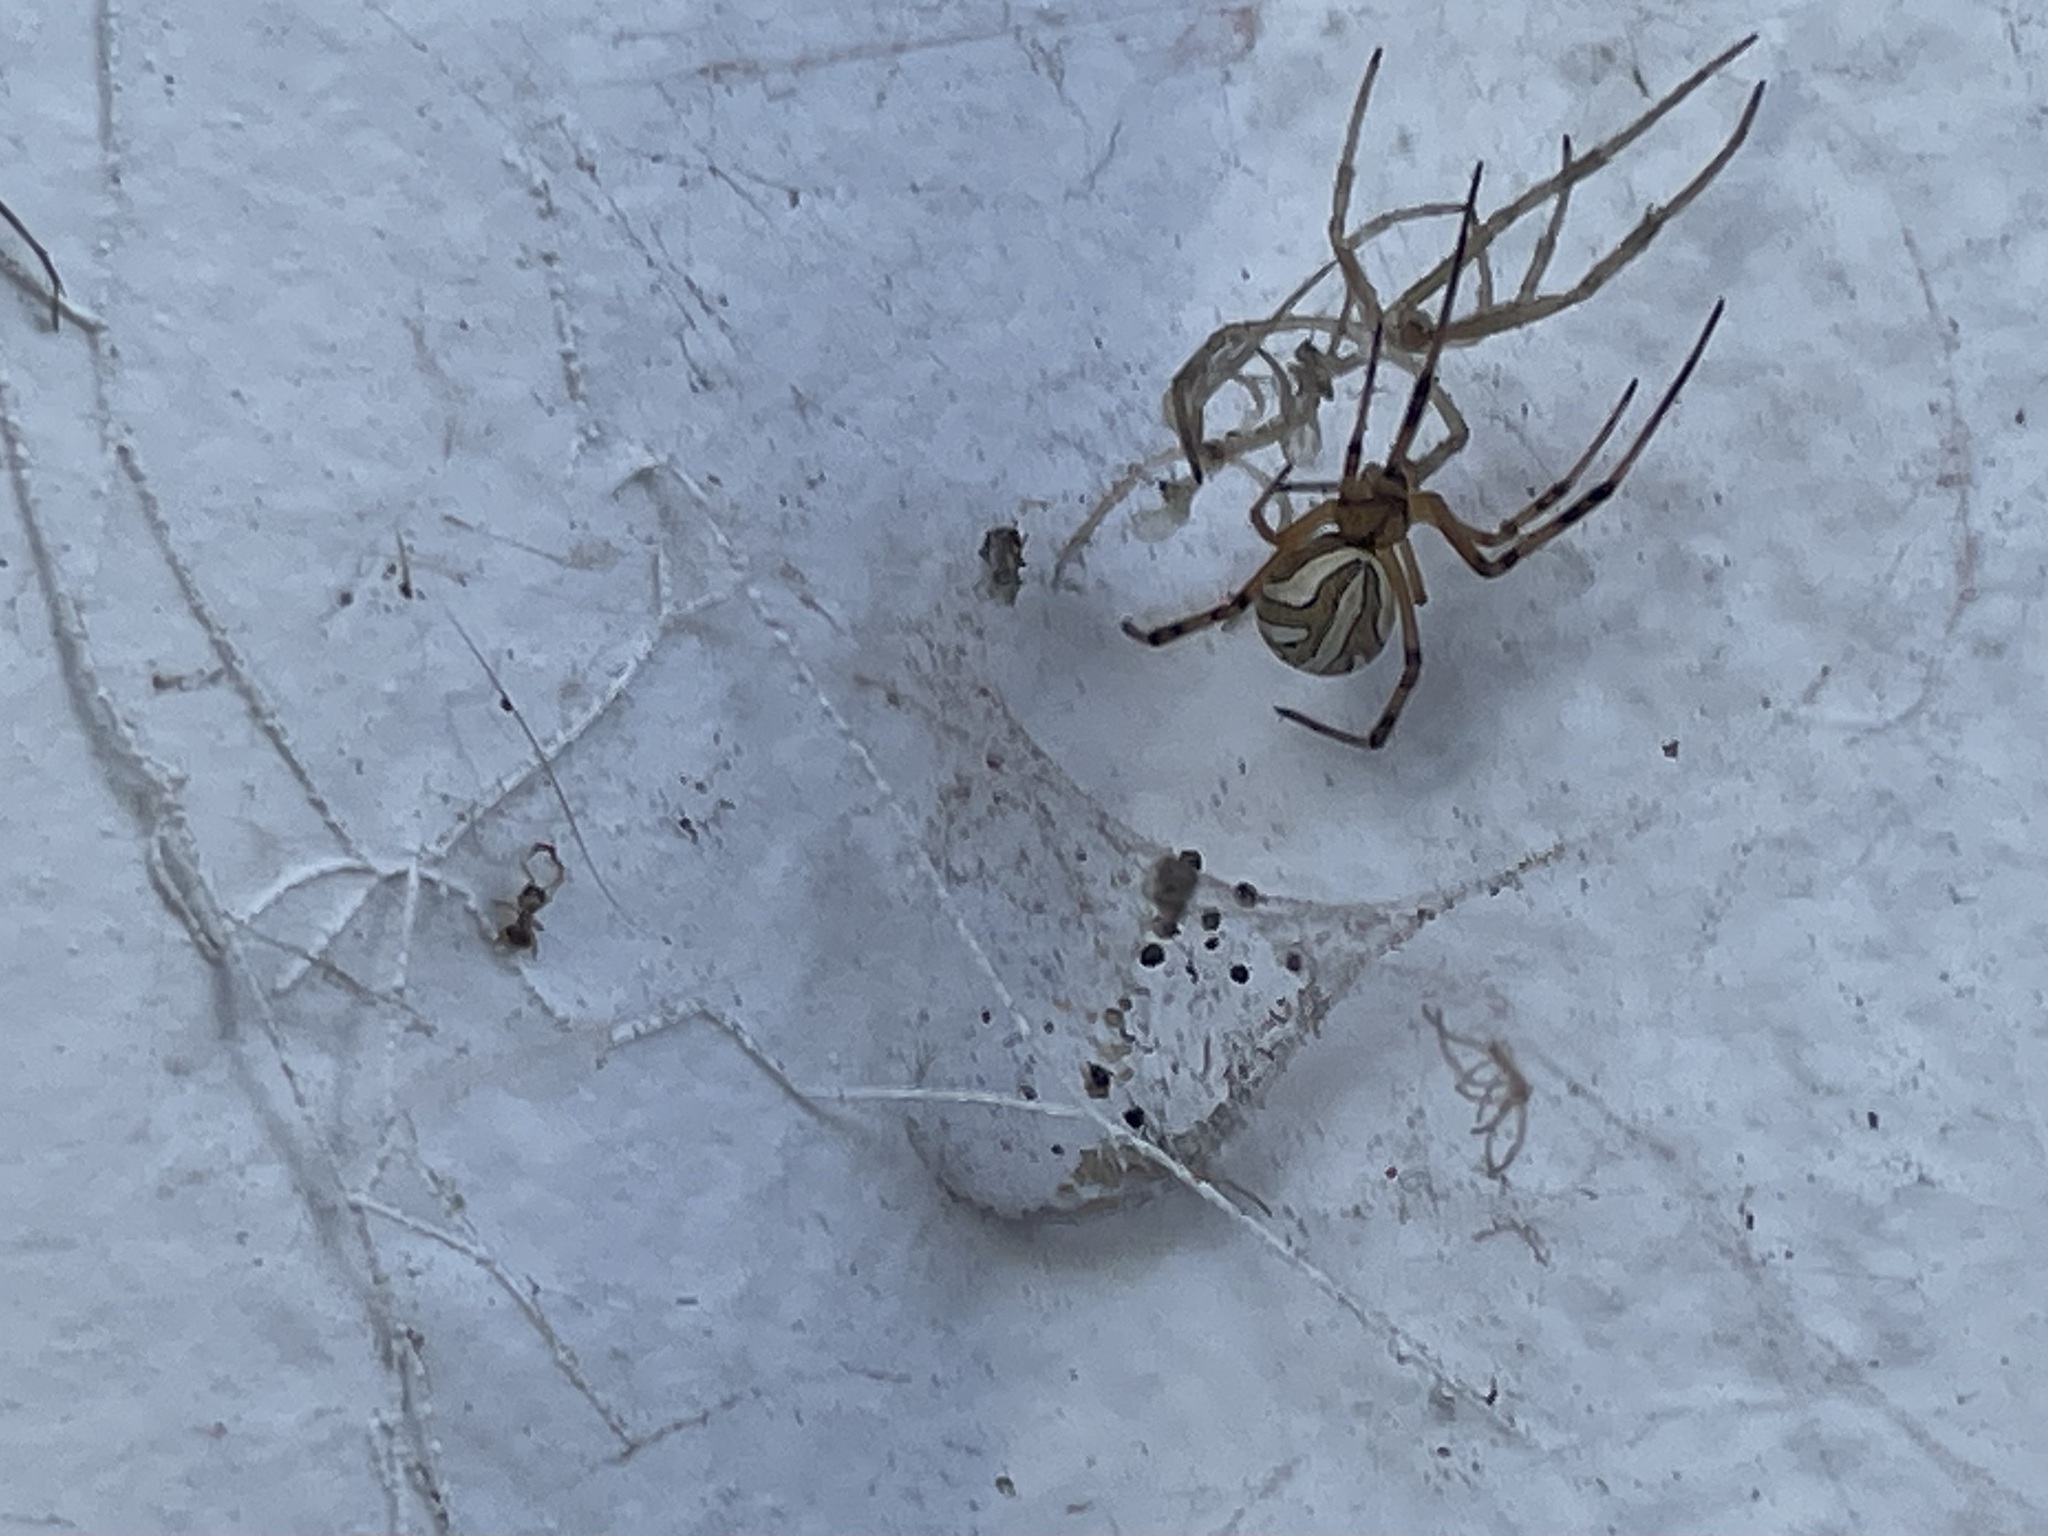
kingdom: Animalia
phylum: Arthropoda
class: Arachnida
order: Araneae
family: Theridiidae
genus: Latrodectus
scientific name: Latrodectus hesperus
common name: Western black widow
